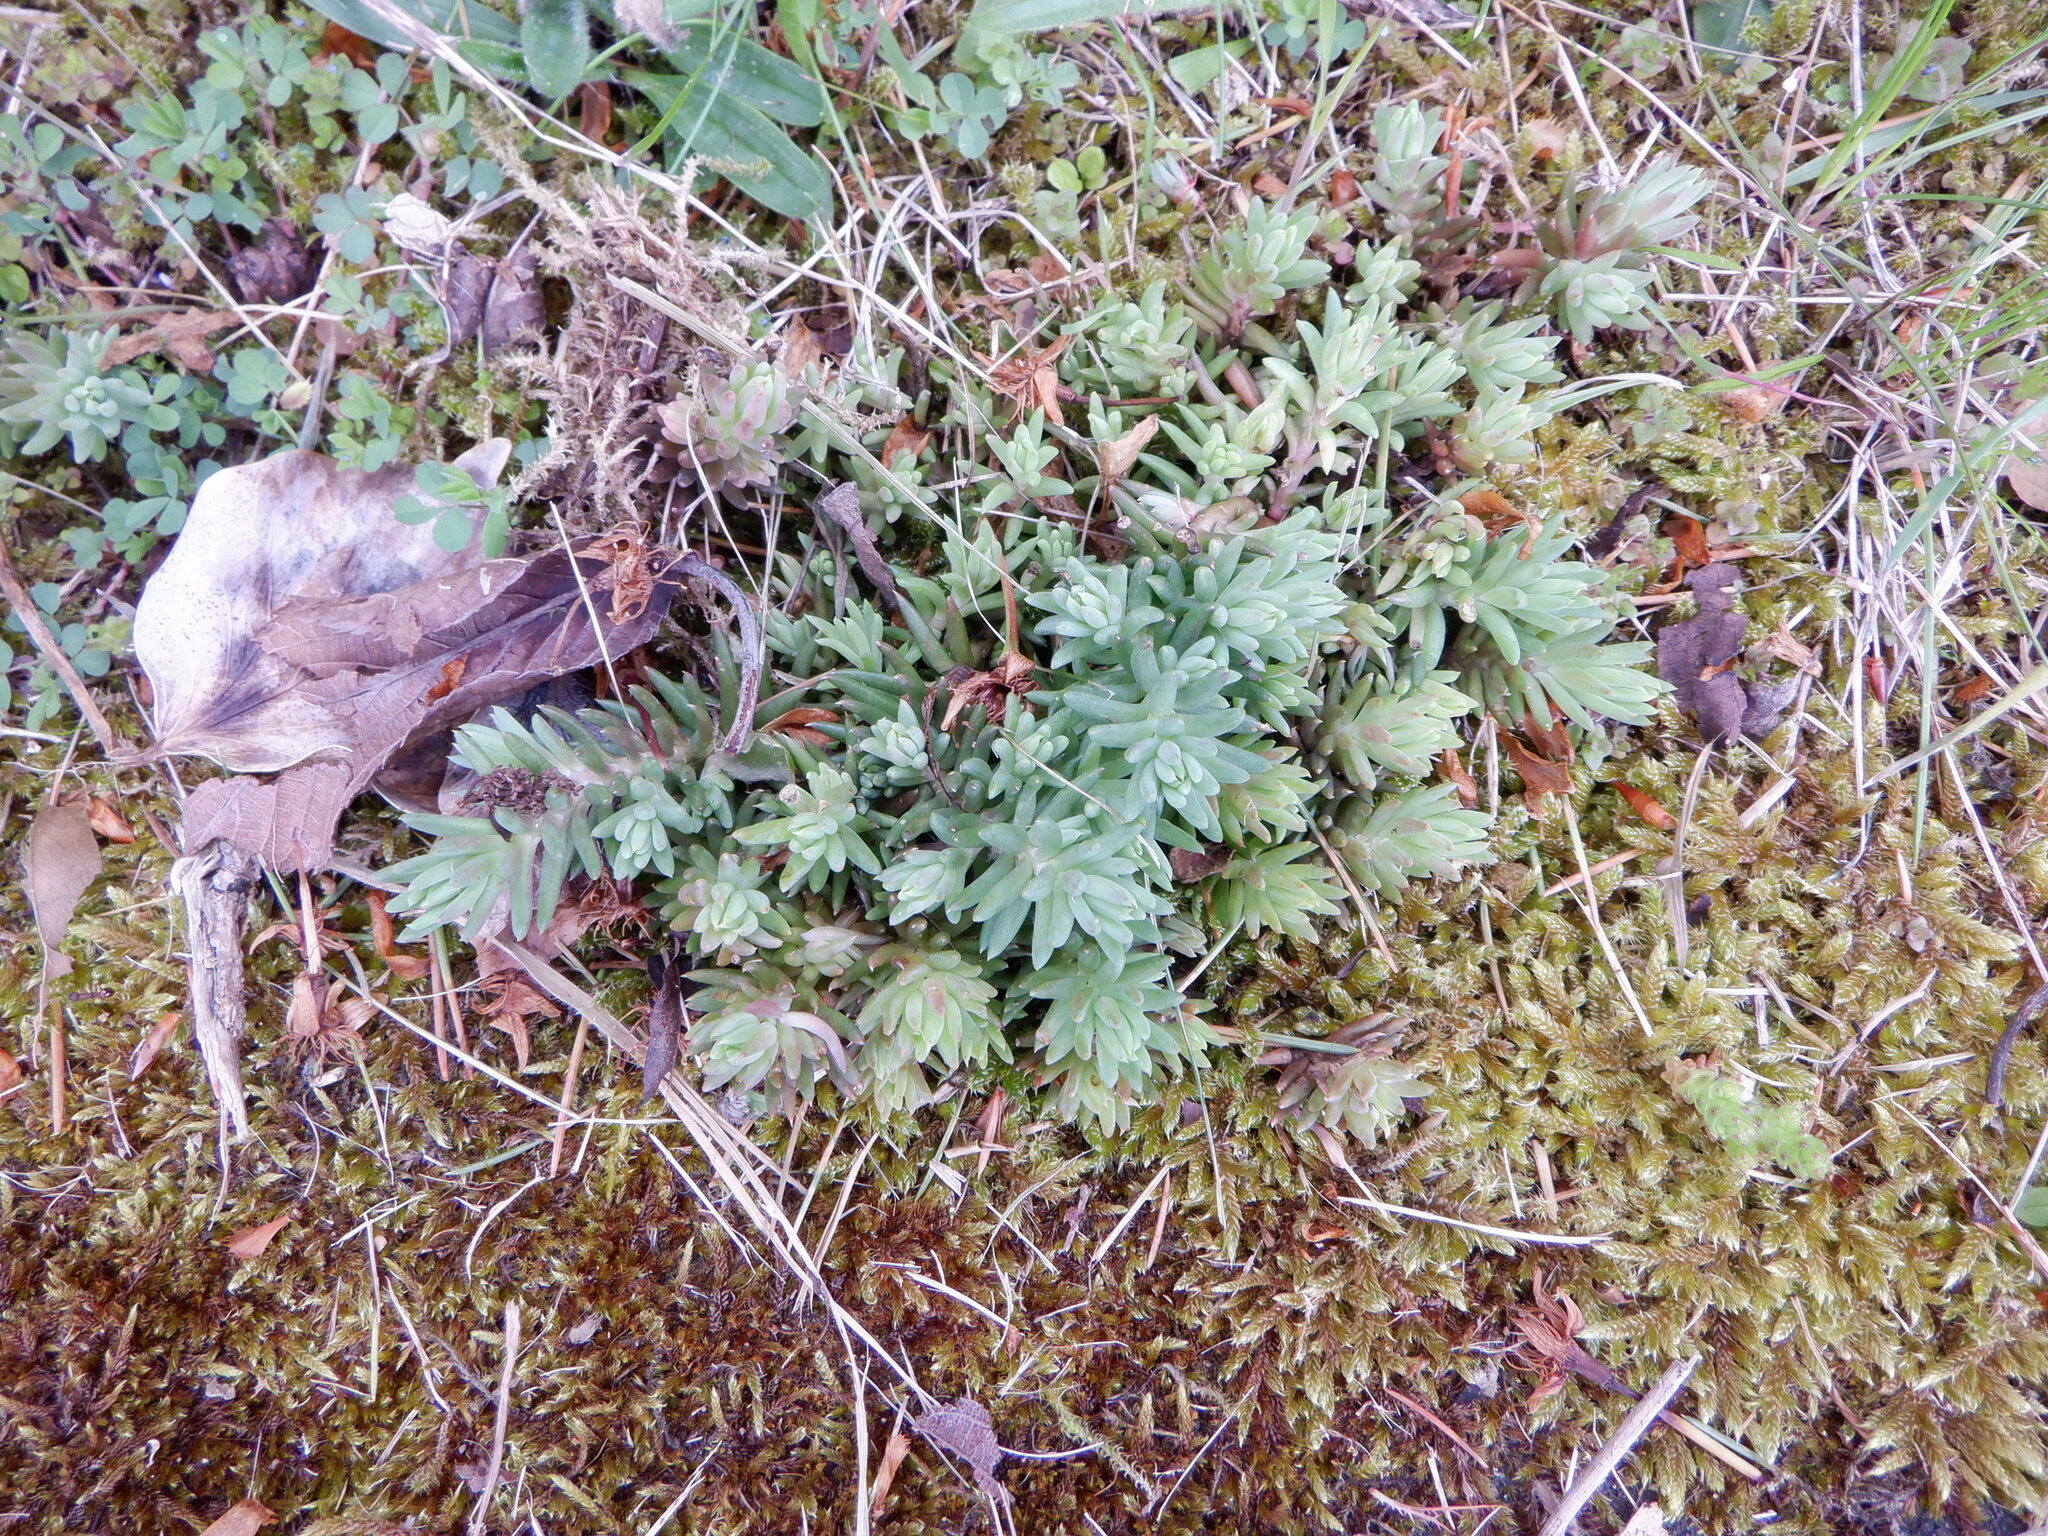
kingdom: Plantae
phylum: Tracheophyta
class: Magnoliopsida
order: Saxifragales
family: Crassulaceae
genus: Petrosedum
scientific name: Petrosedum rupestre
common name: Jenny's stonecrop
